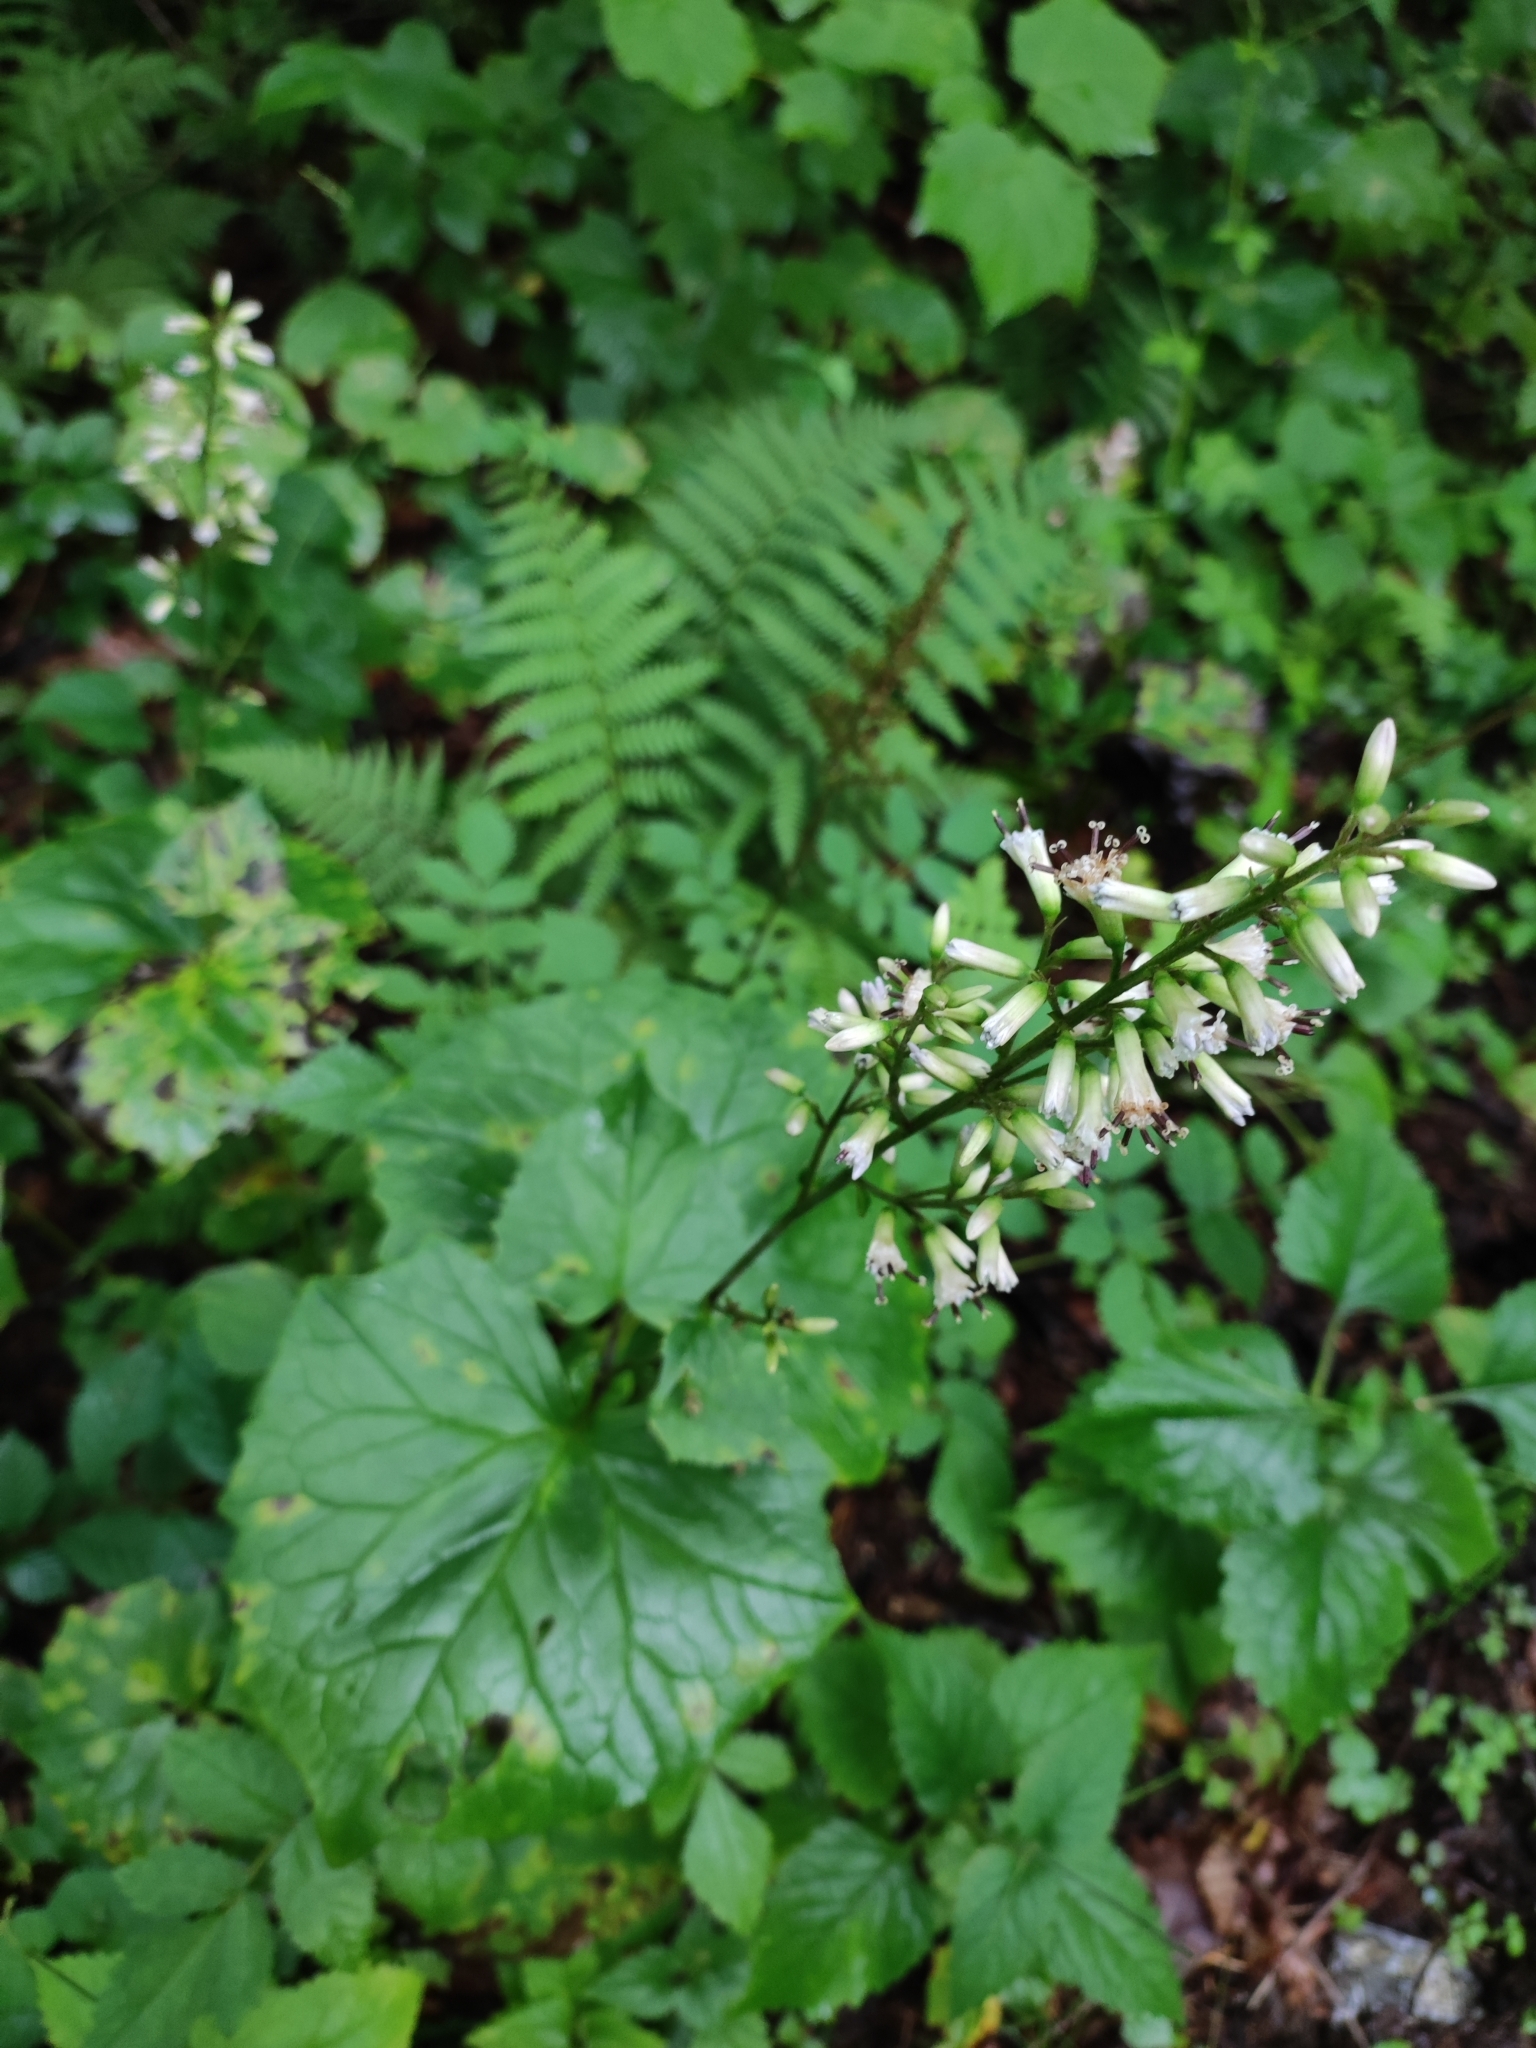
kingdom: Plantae
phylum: Tracheophyta
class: Magnoliopsida
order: Asterales
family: Asteraceae
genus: Parasenecio
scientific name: Parasenecio praetermissus
